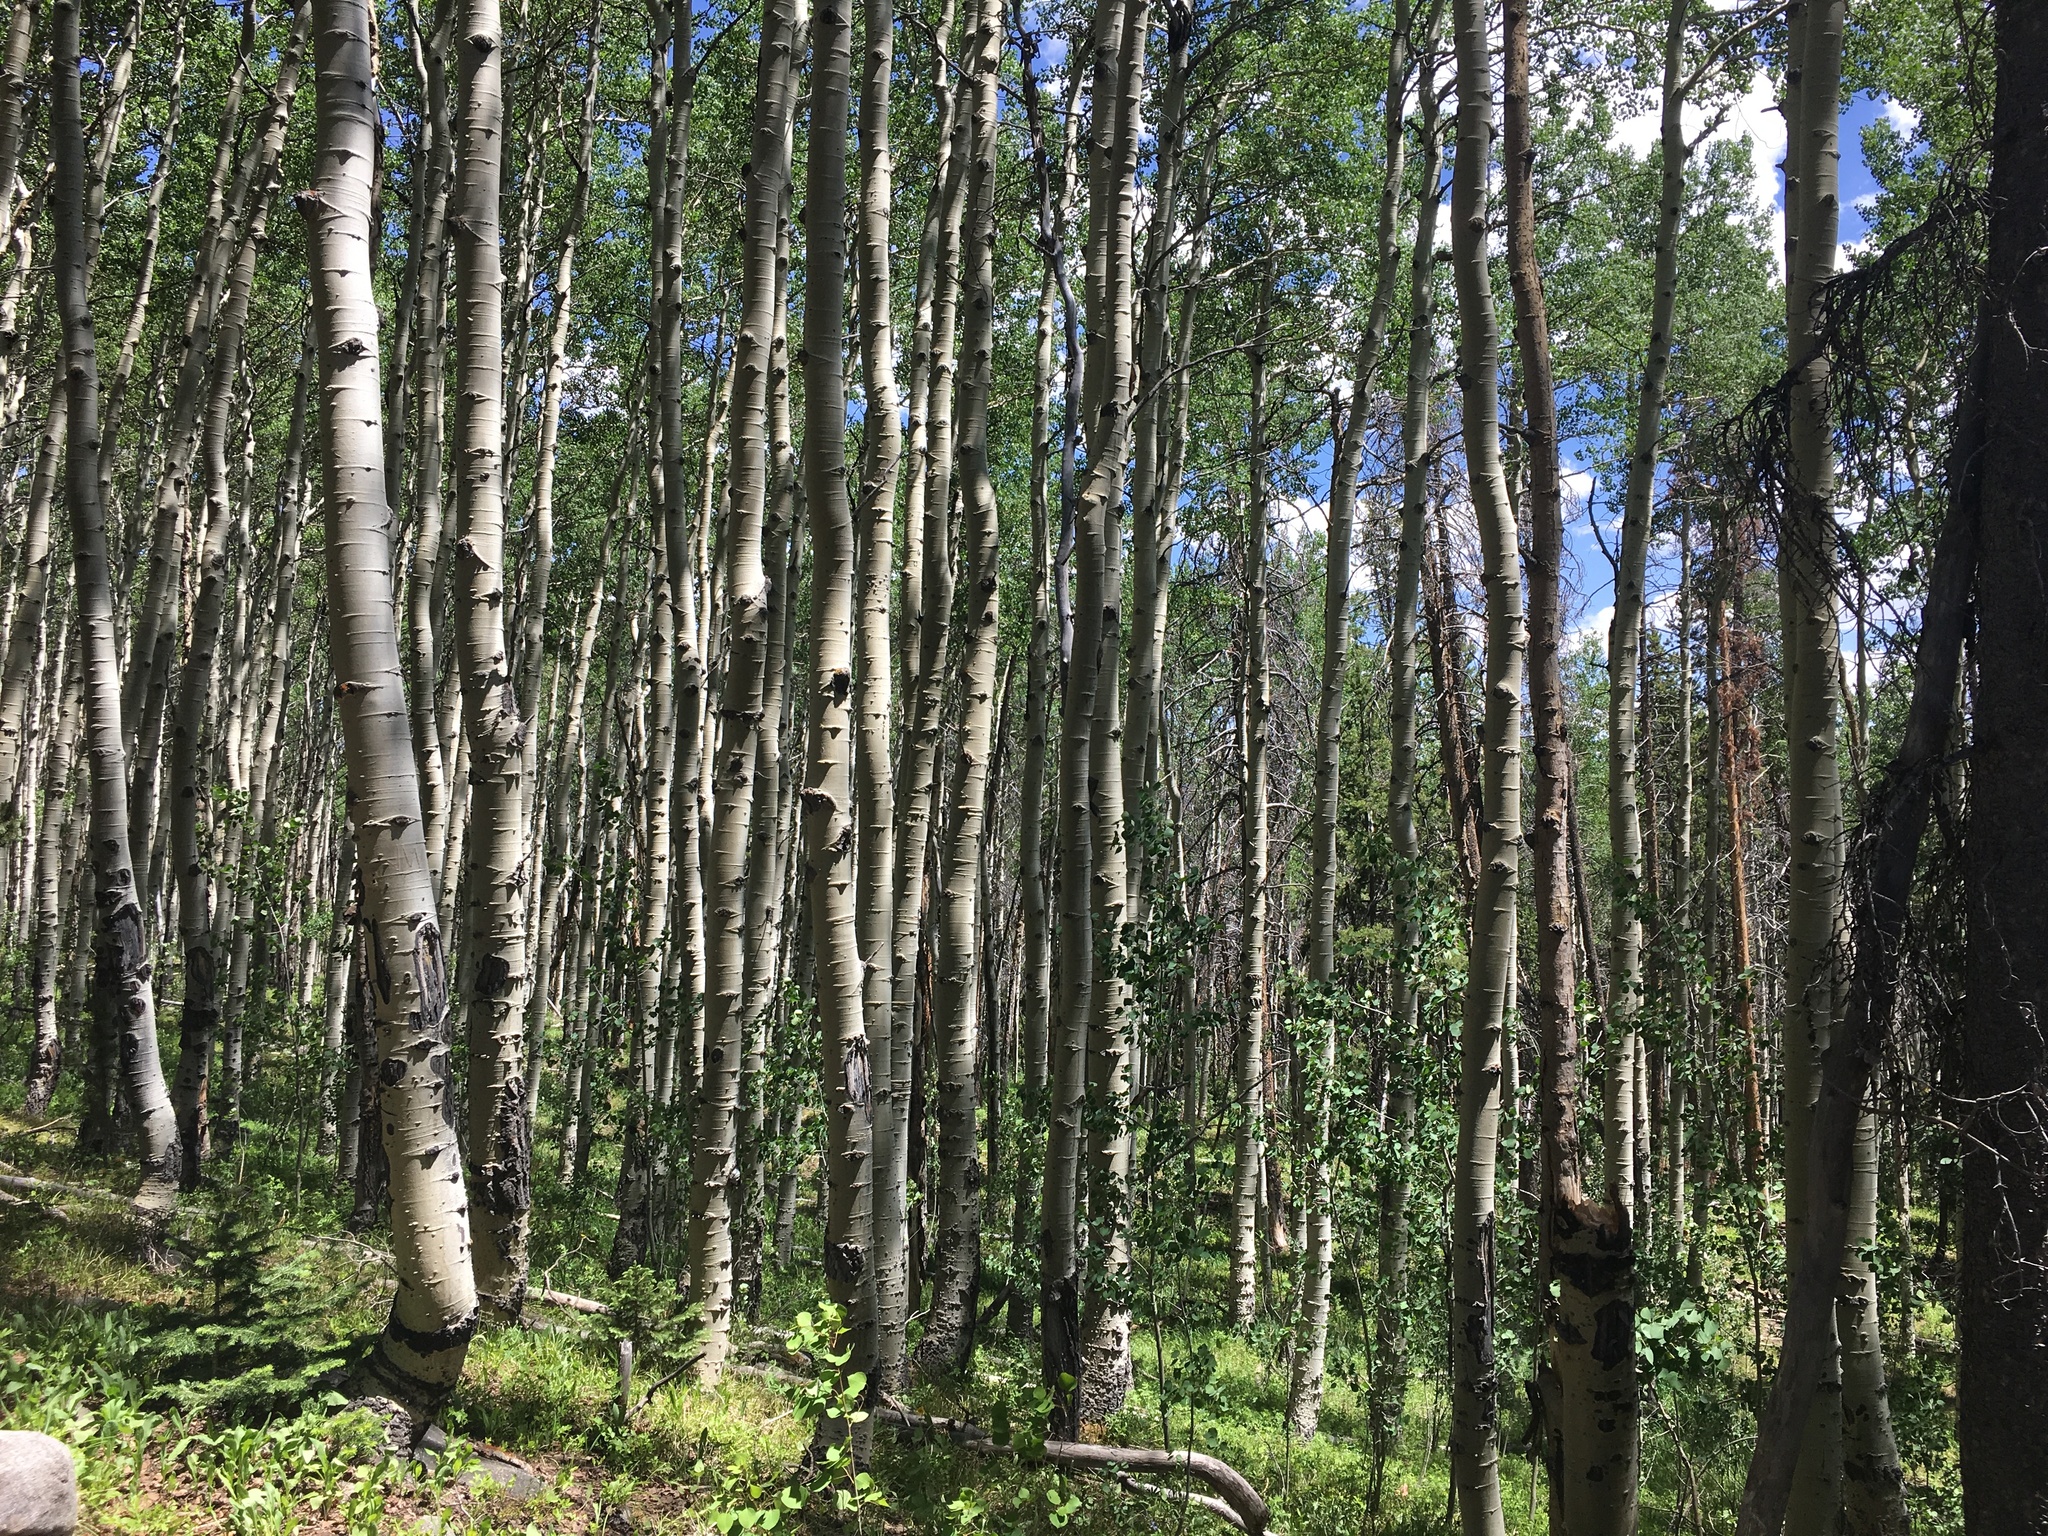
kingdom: Plantae
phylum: Tracheophyta
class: Magnoliopsida
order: Malpighiales
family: Salicaceae
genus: Populus
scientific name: Populus tremuloides
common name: Quaking aspen
